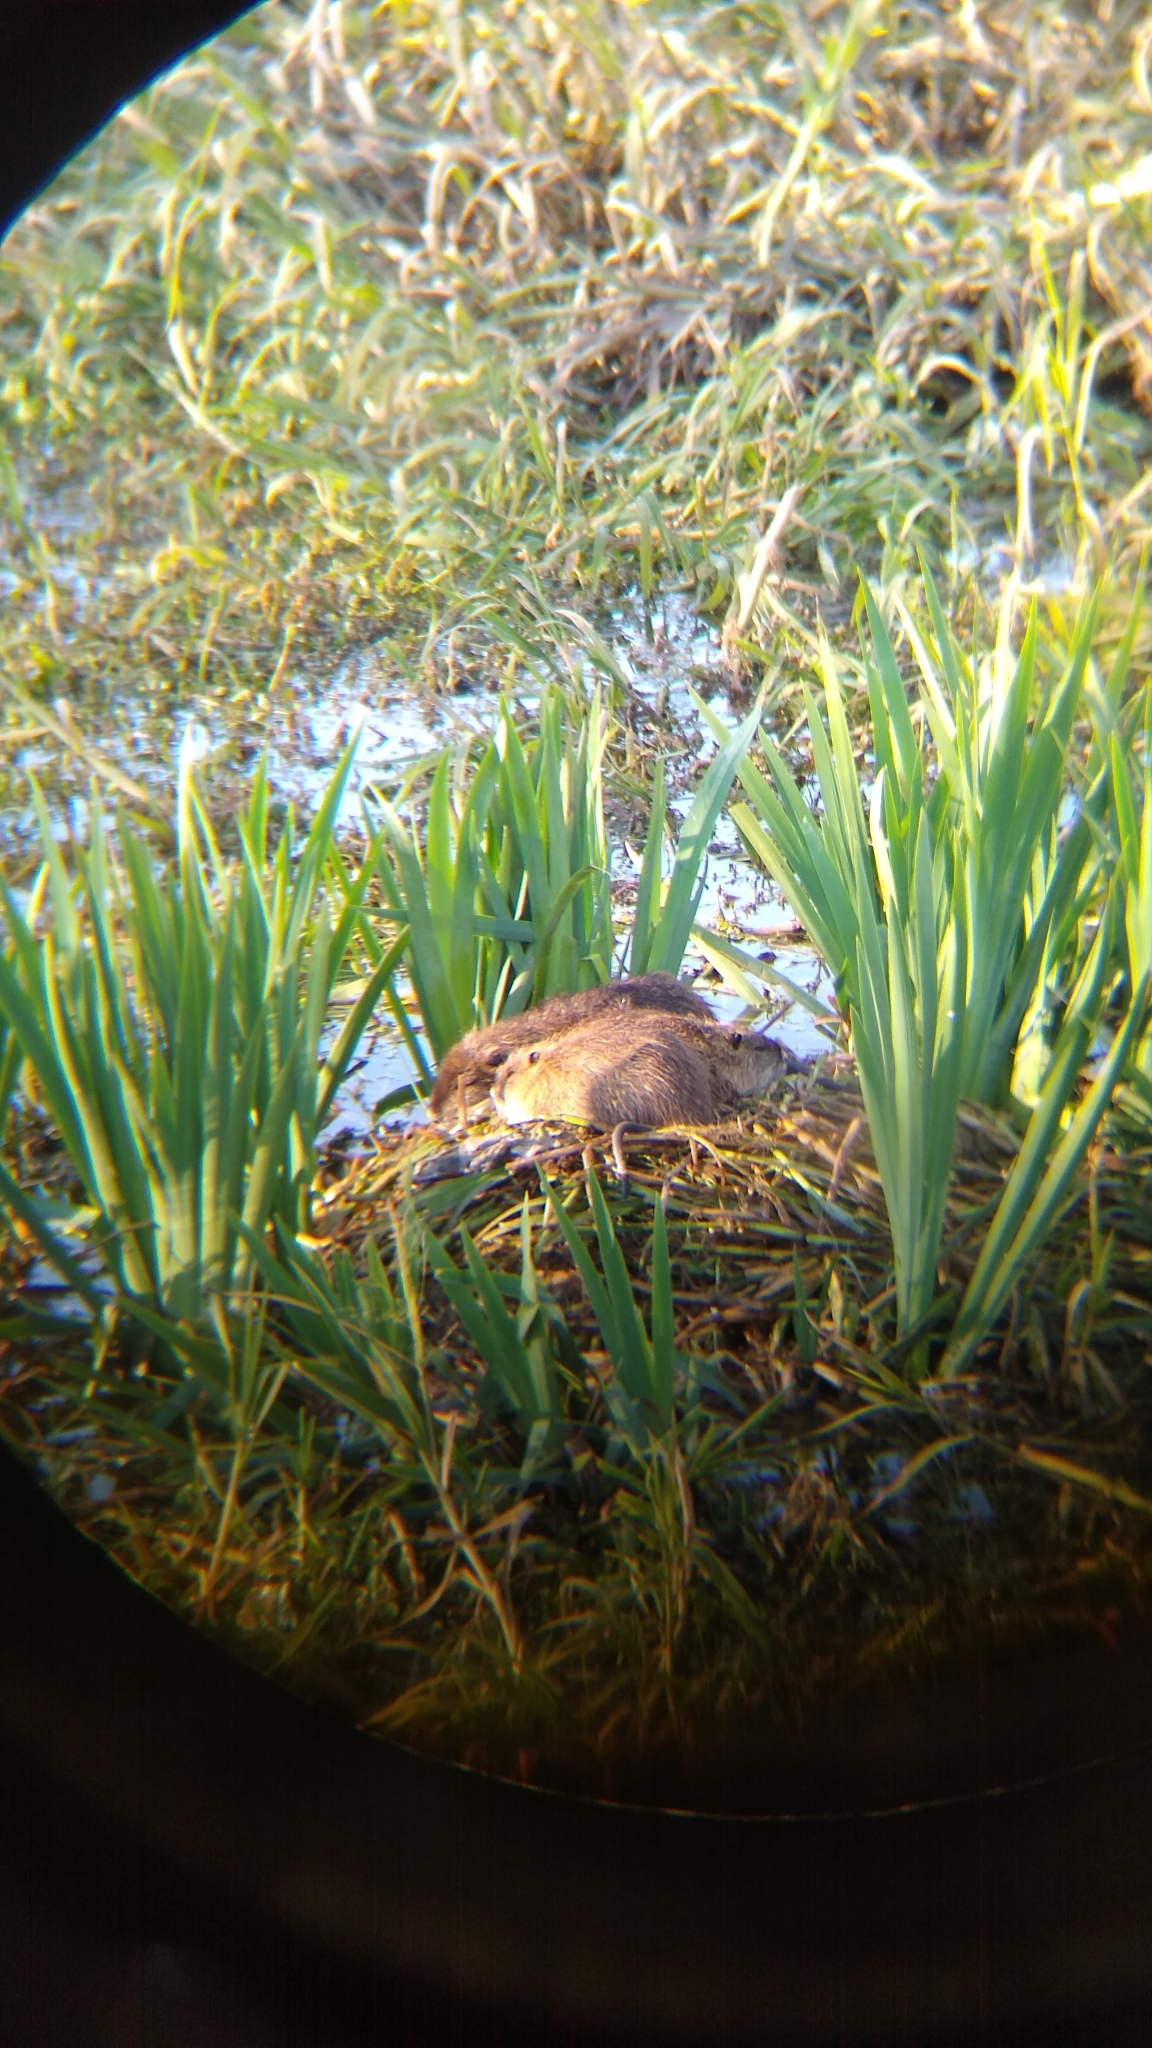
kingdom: Animalia
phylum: Chordata
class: Mammalia
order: Rodentia
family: Myocastoridae
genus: Myocastor
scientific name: Myocastor coypus
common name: Coypu
